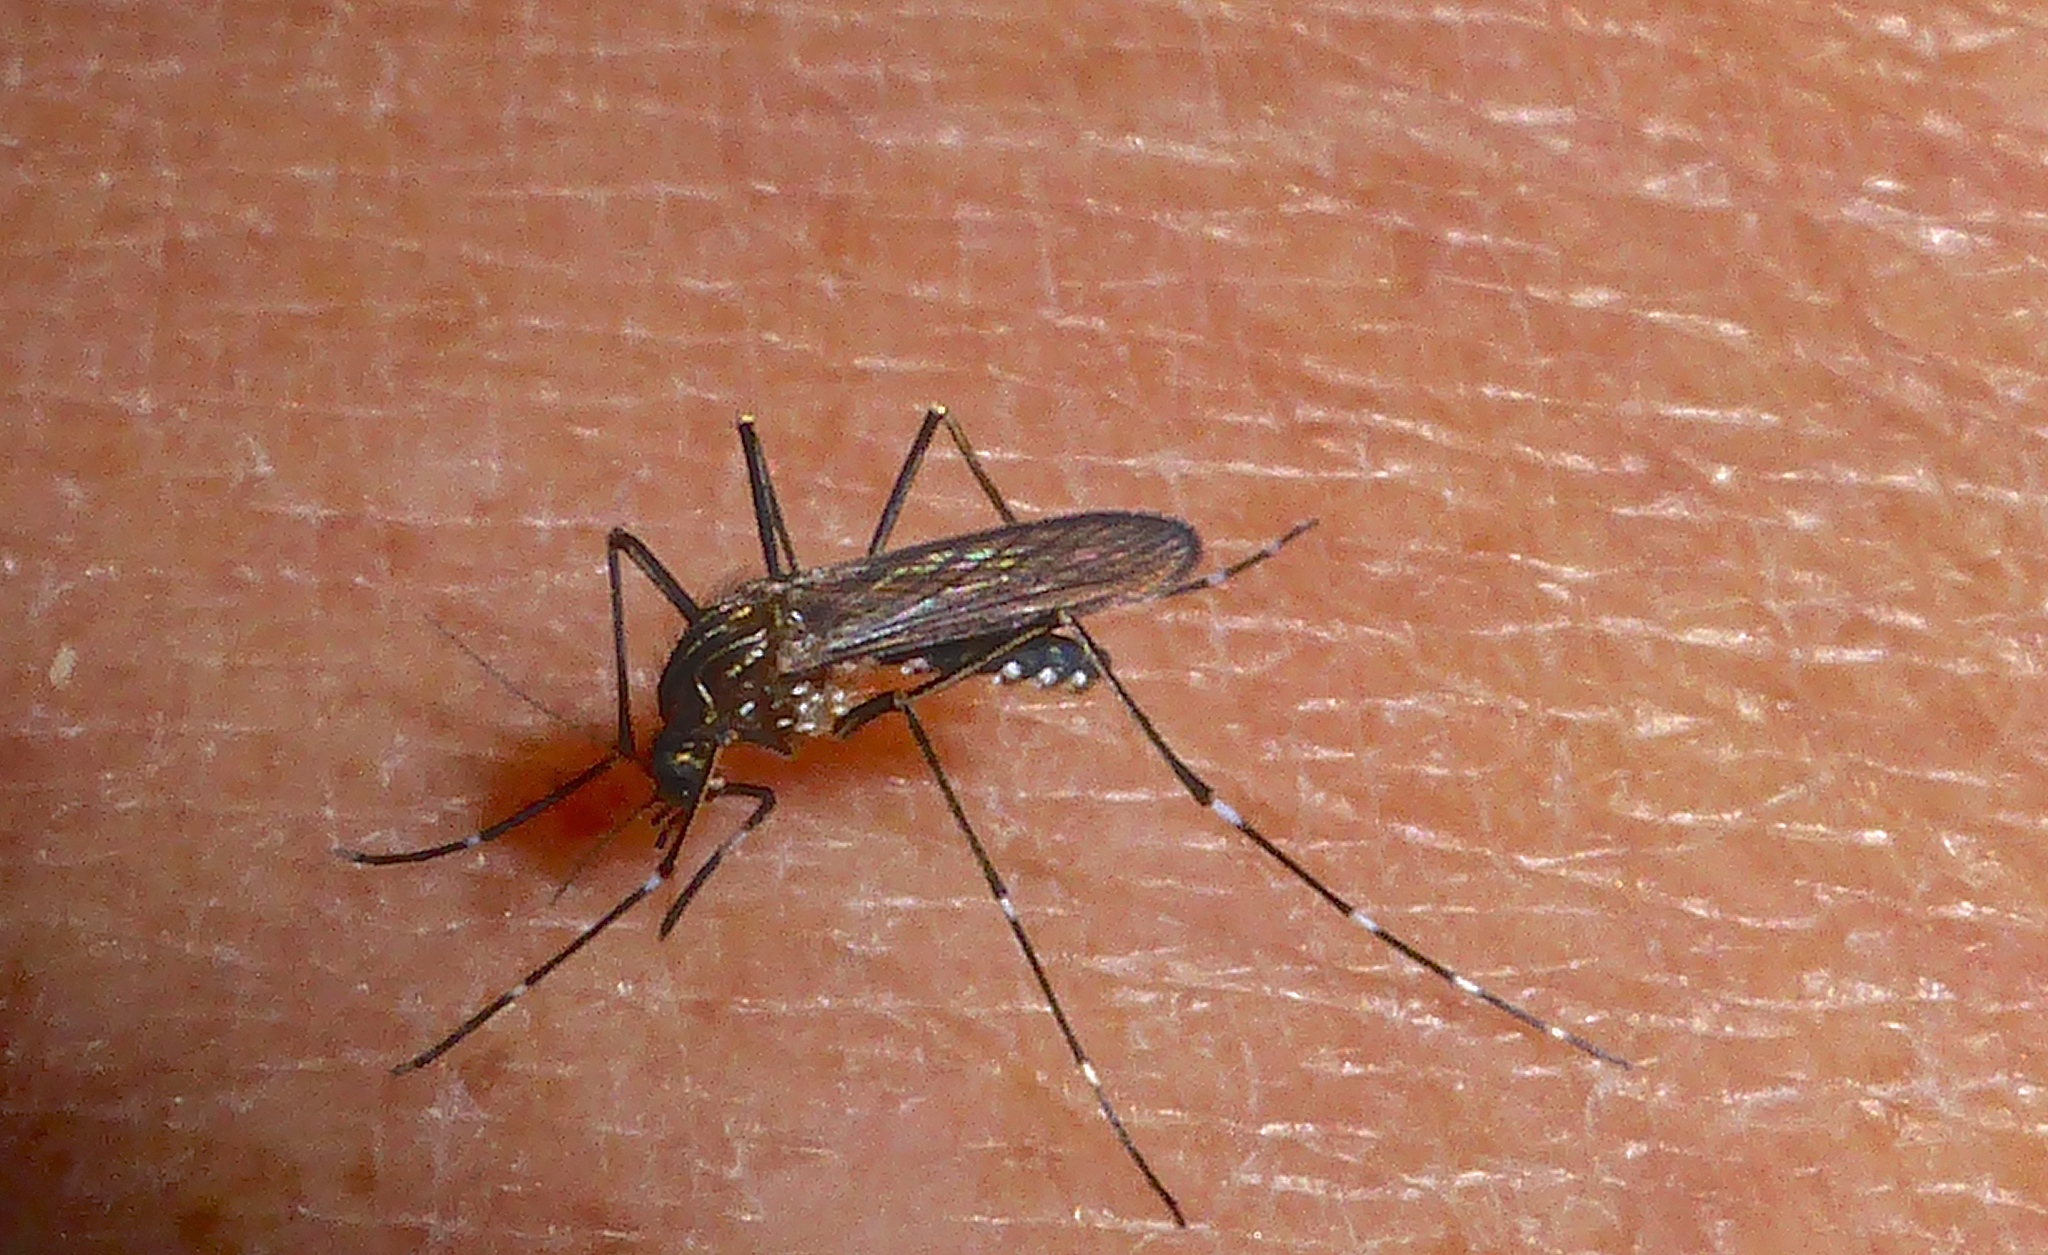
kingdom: Animalia
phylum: Arthropoda
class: Insecta
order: Diptera
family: Culicidae
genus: Aedes
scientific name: Aedes notoscriptus
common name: Australian backyard mosquito
